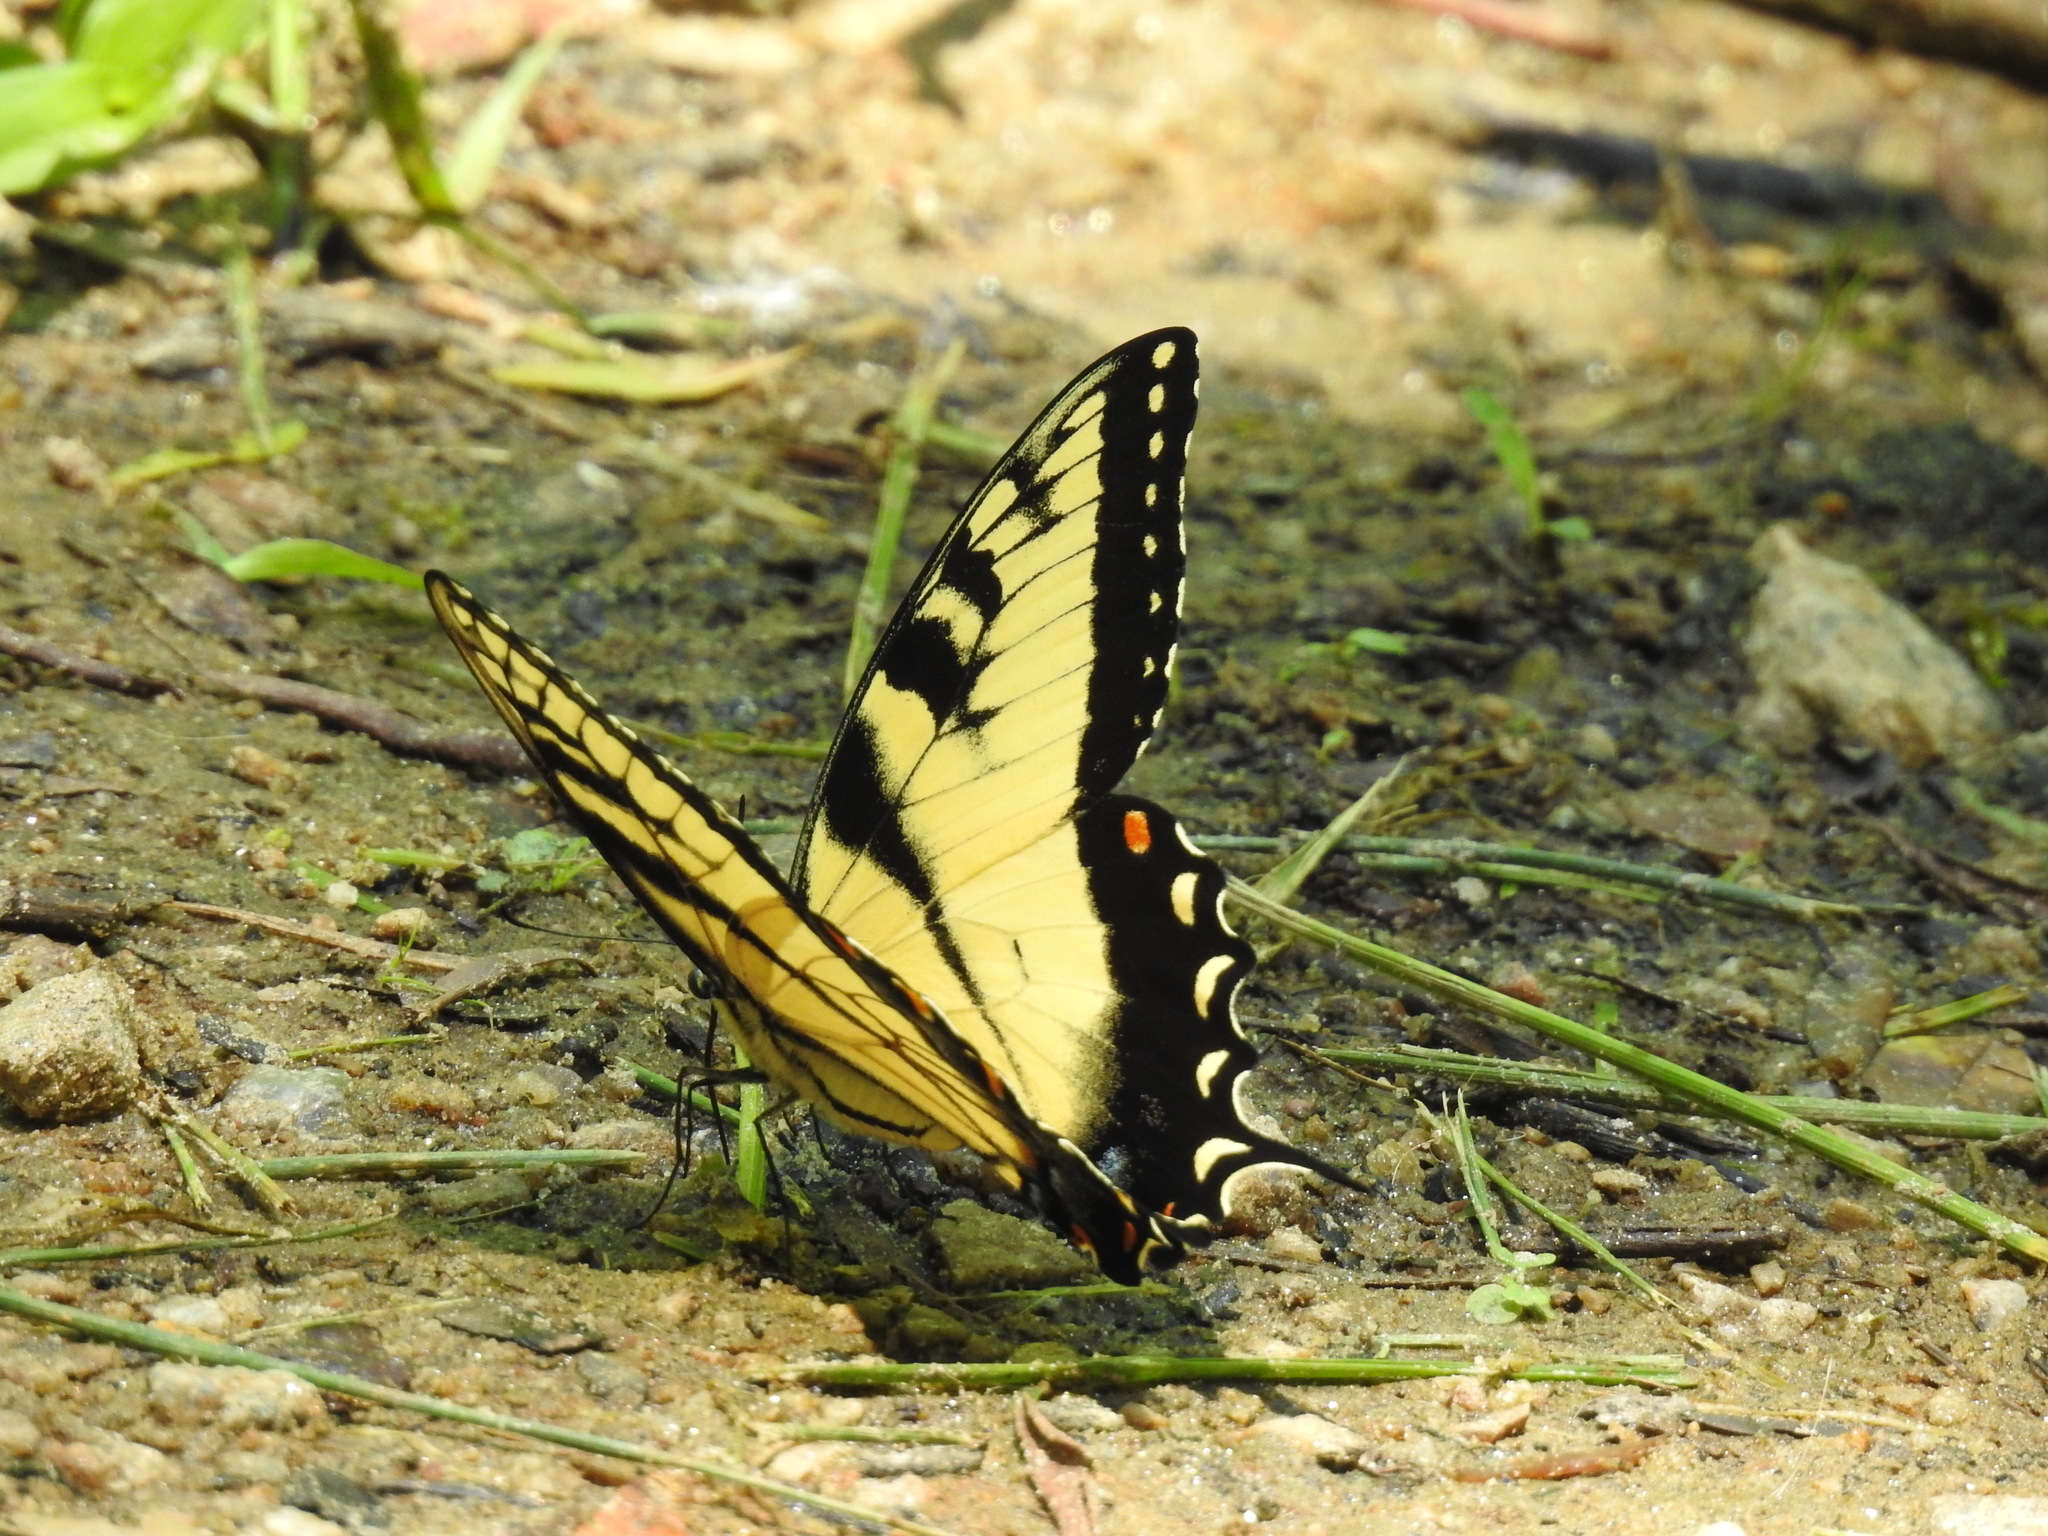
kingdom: Animalia
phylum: Arthropoda
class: Insecta
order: Lepidoptera
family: Papilionidae
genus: Papilio
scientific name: Papilio glaucus
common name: Tiger swallowtail
